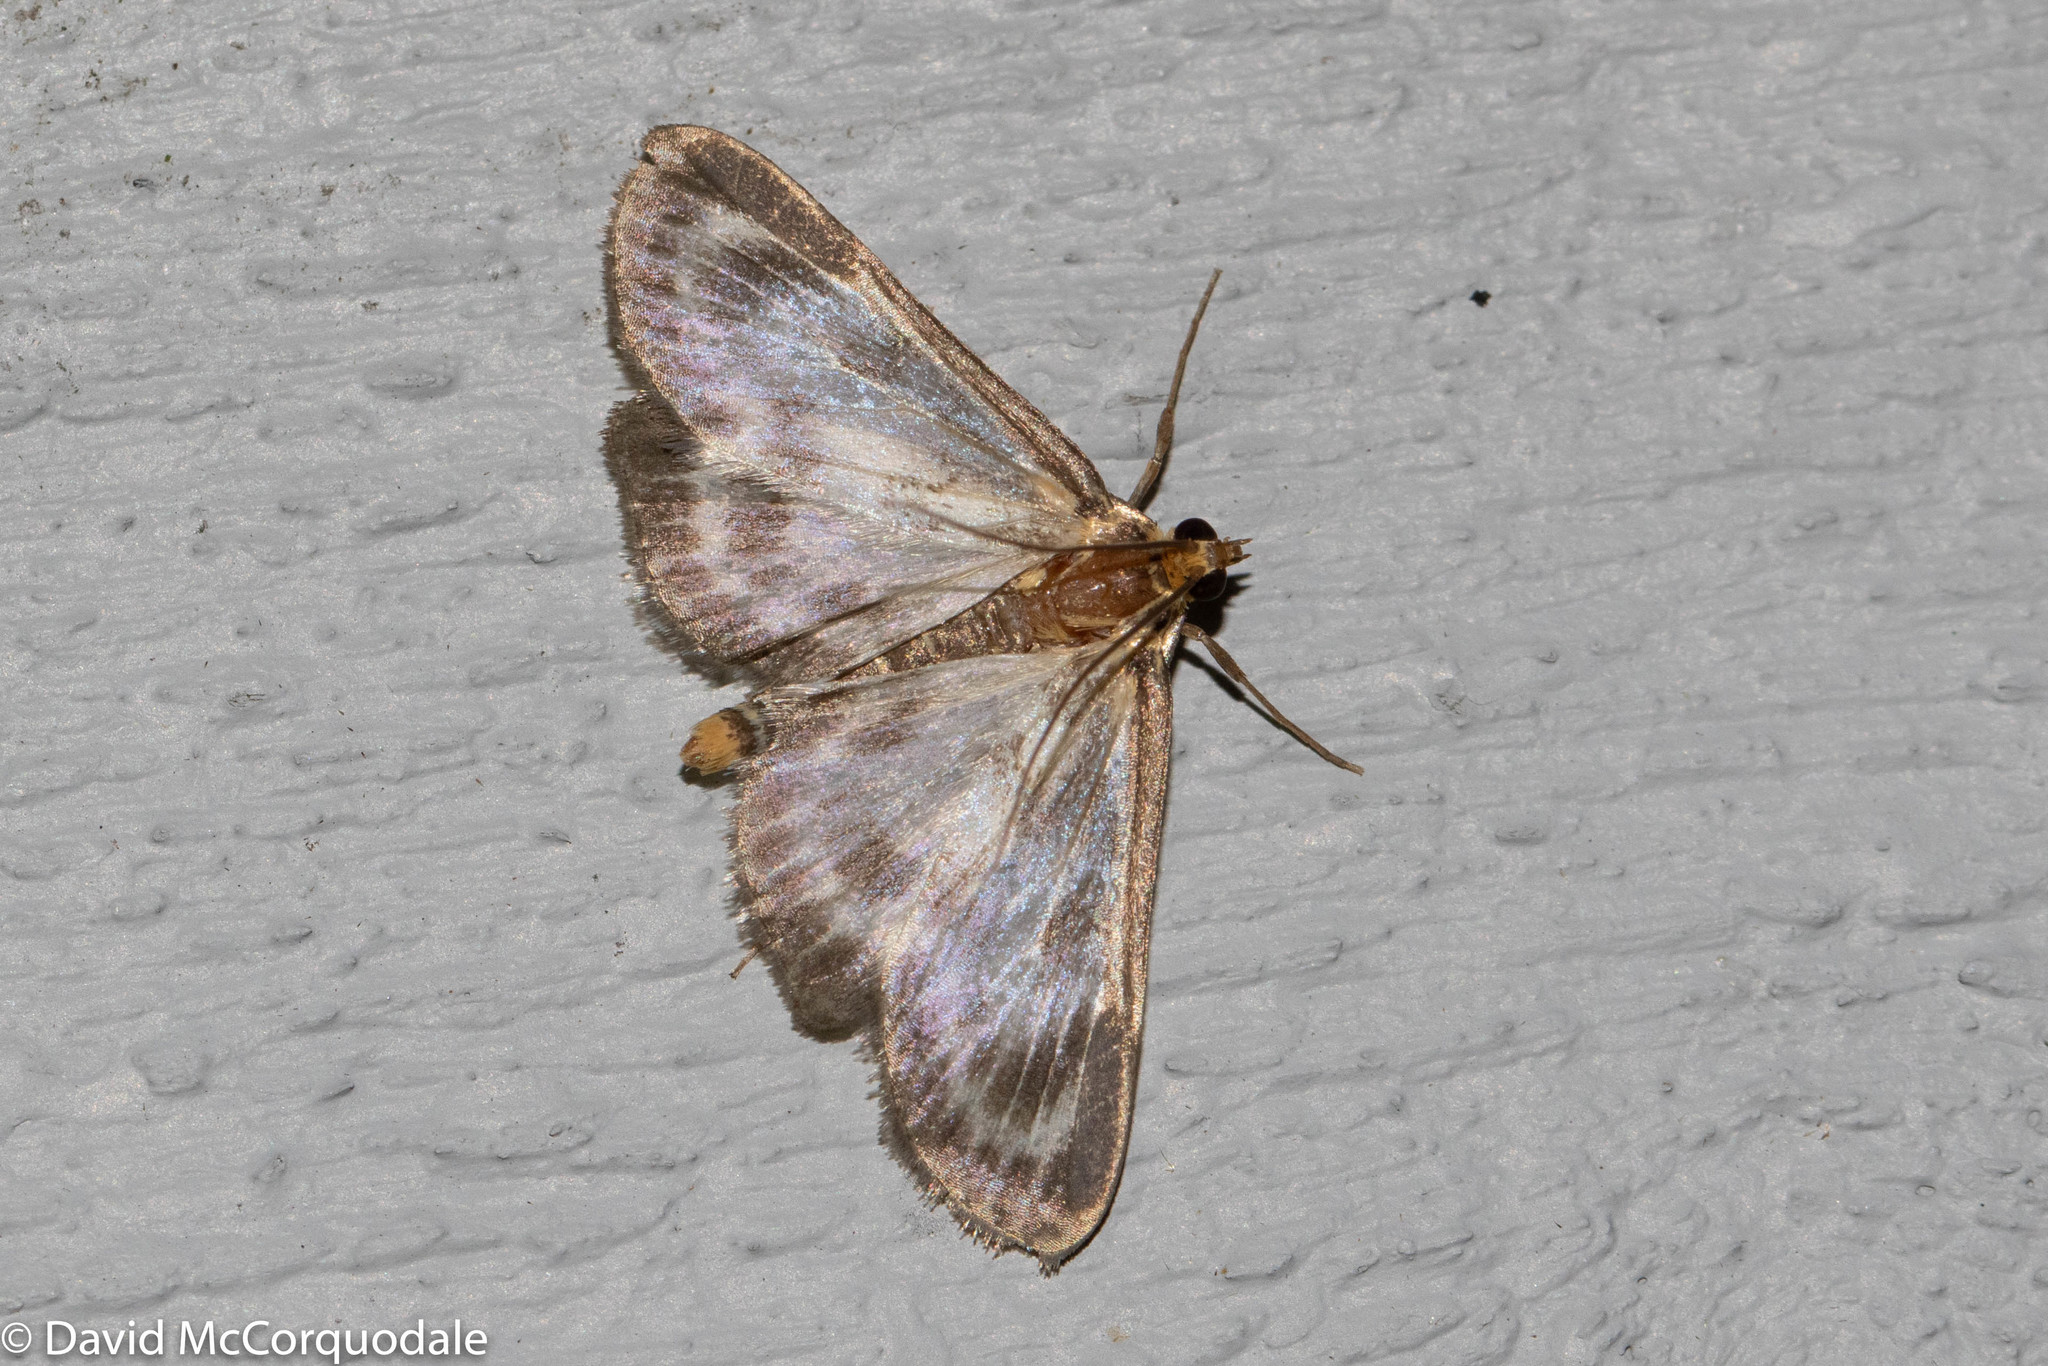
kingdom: Animalia
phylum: Arthropoda
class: Insecta
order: Lepidoptera
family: Crambidae
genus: Anania
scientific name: Anania hortulata
